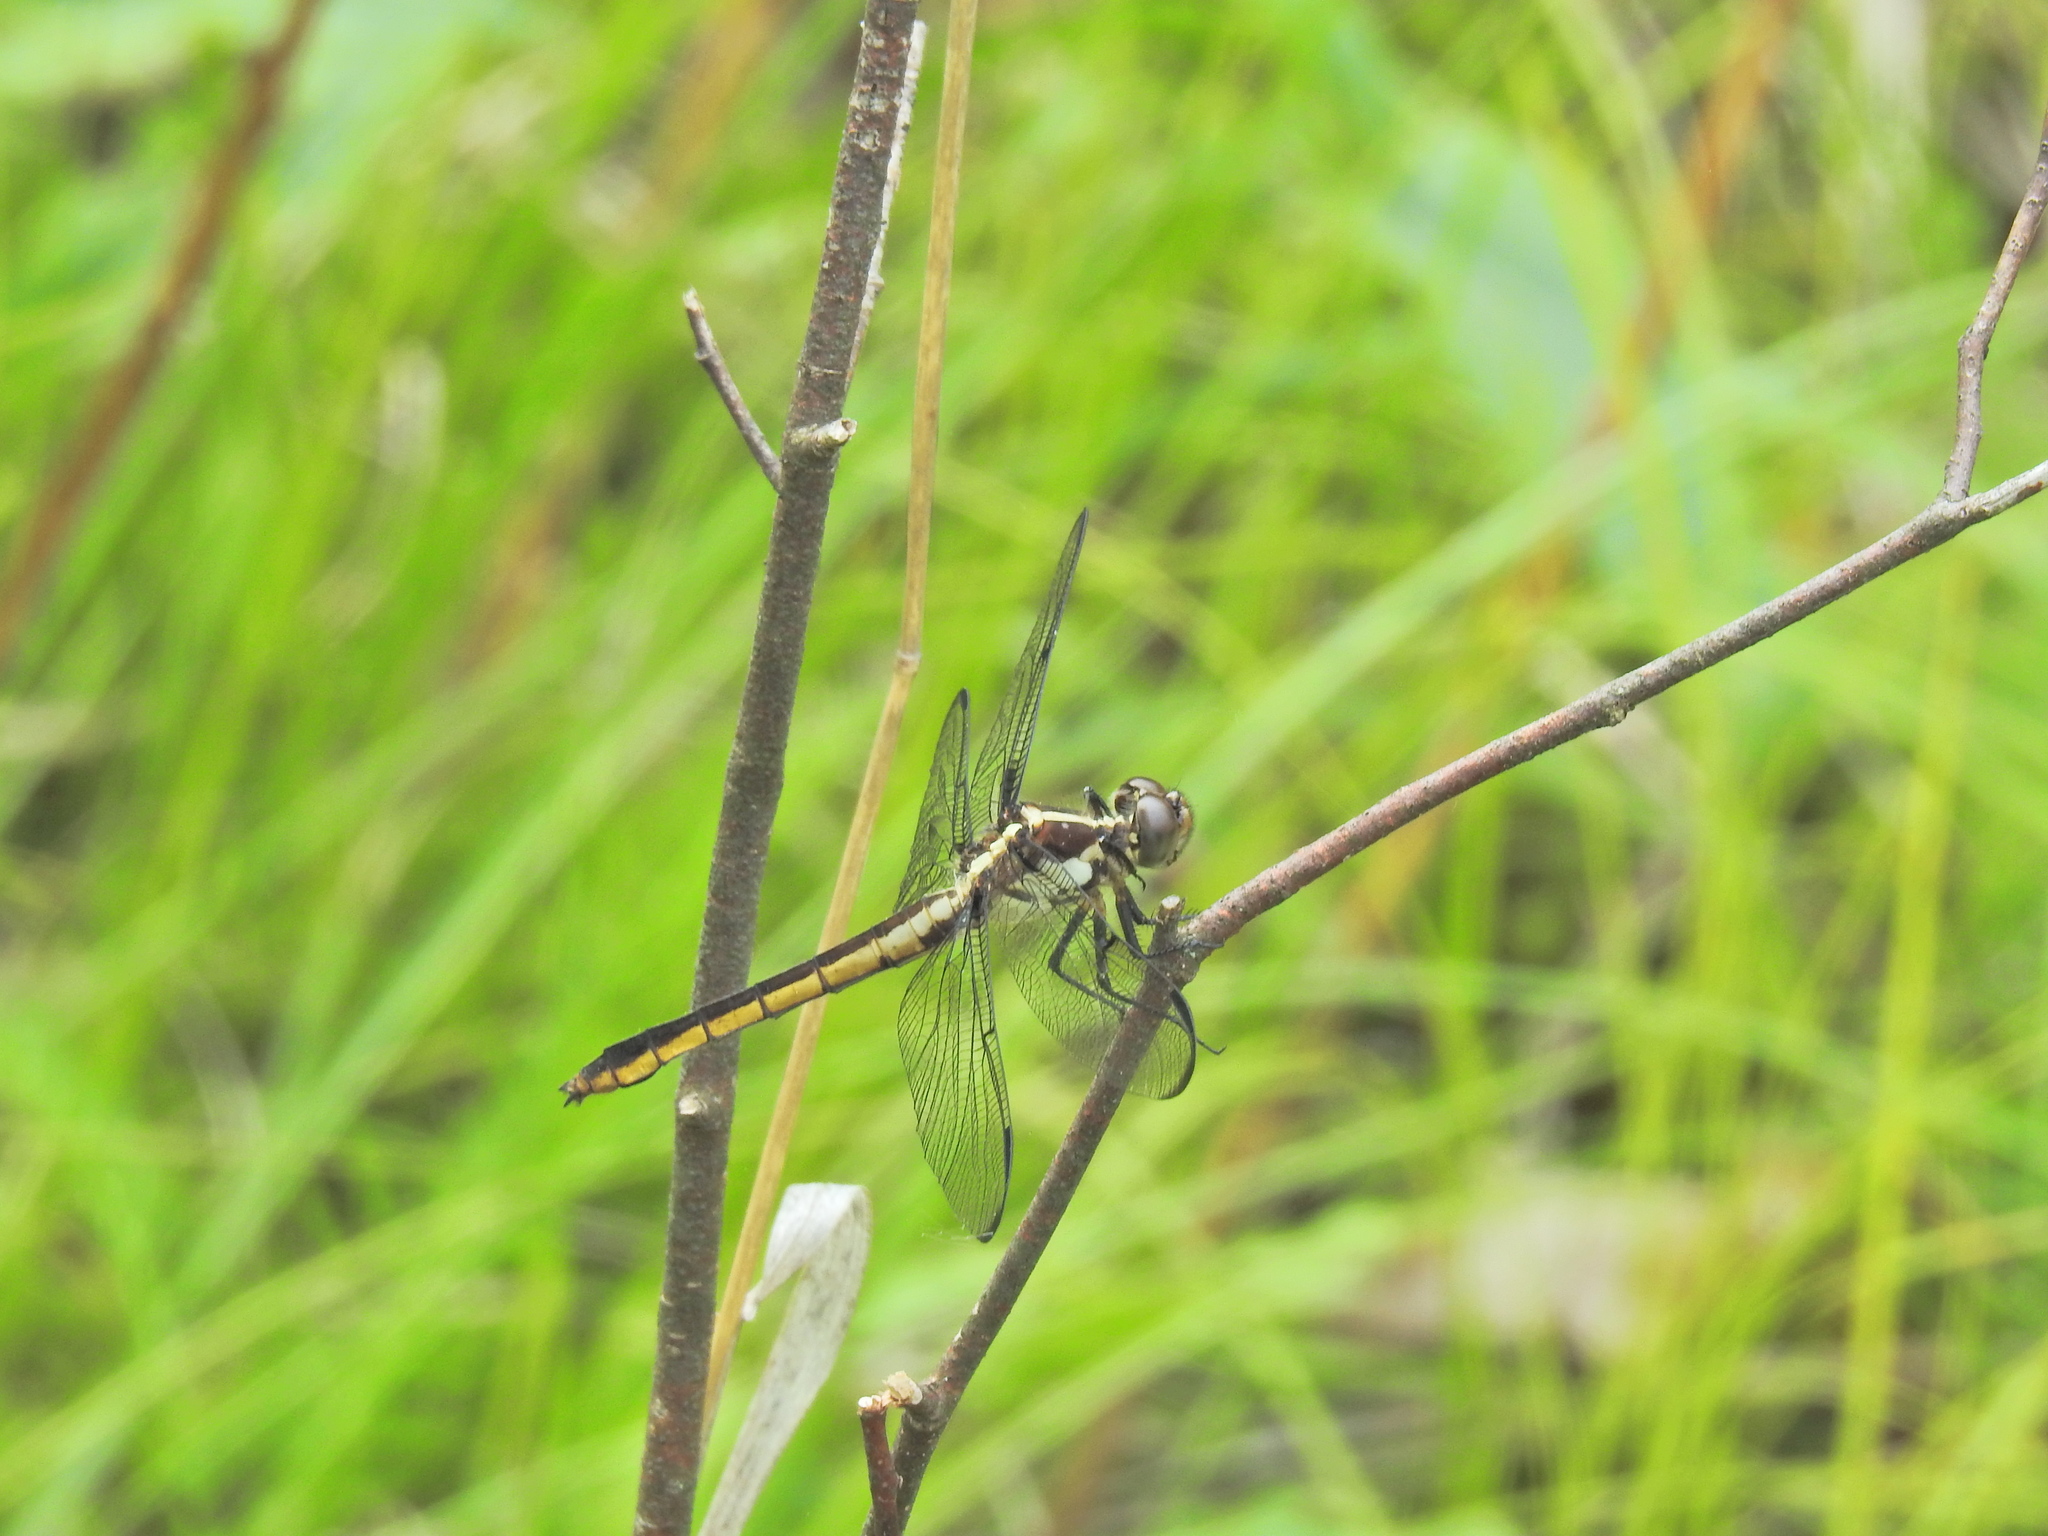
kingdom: Animalia
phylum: Arthropoda
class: Insecta
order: Odonata
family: Libellulidae
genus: Libellula
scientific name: Libellula incesta
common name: Slaty skimmer
